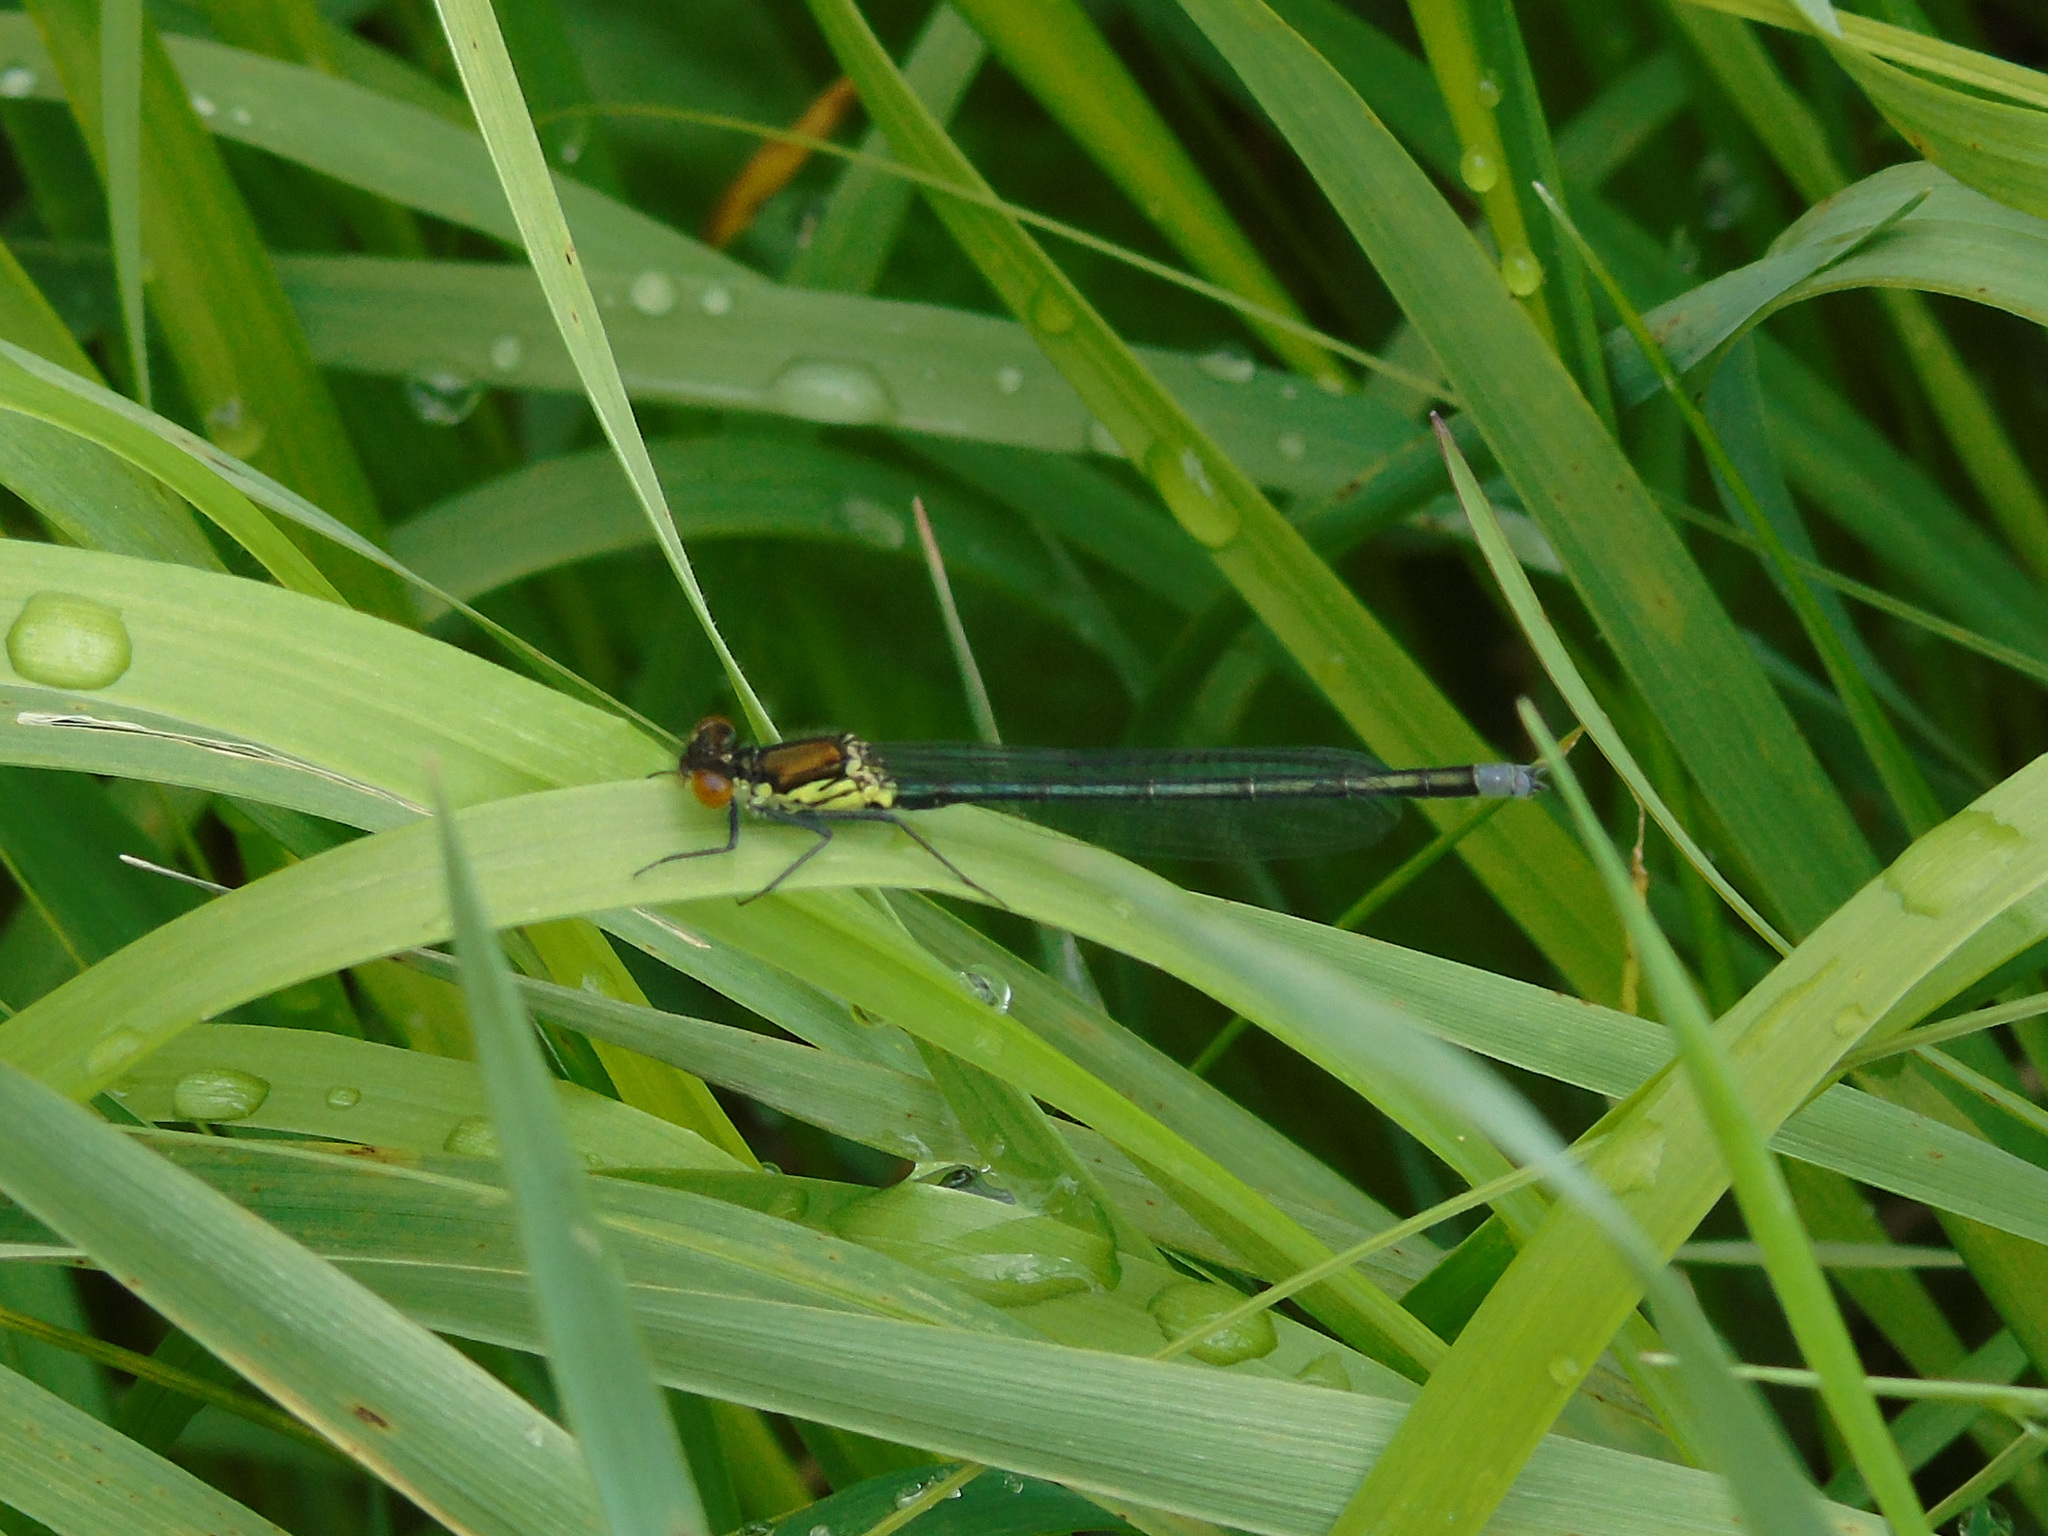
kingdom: Animalia
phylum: Arthropoda
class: Insecta
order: Odonata
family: Coenagrionidae
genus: Erythromma
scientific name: Erythromma najas
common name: Red-eyed damselfly
